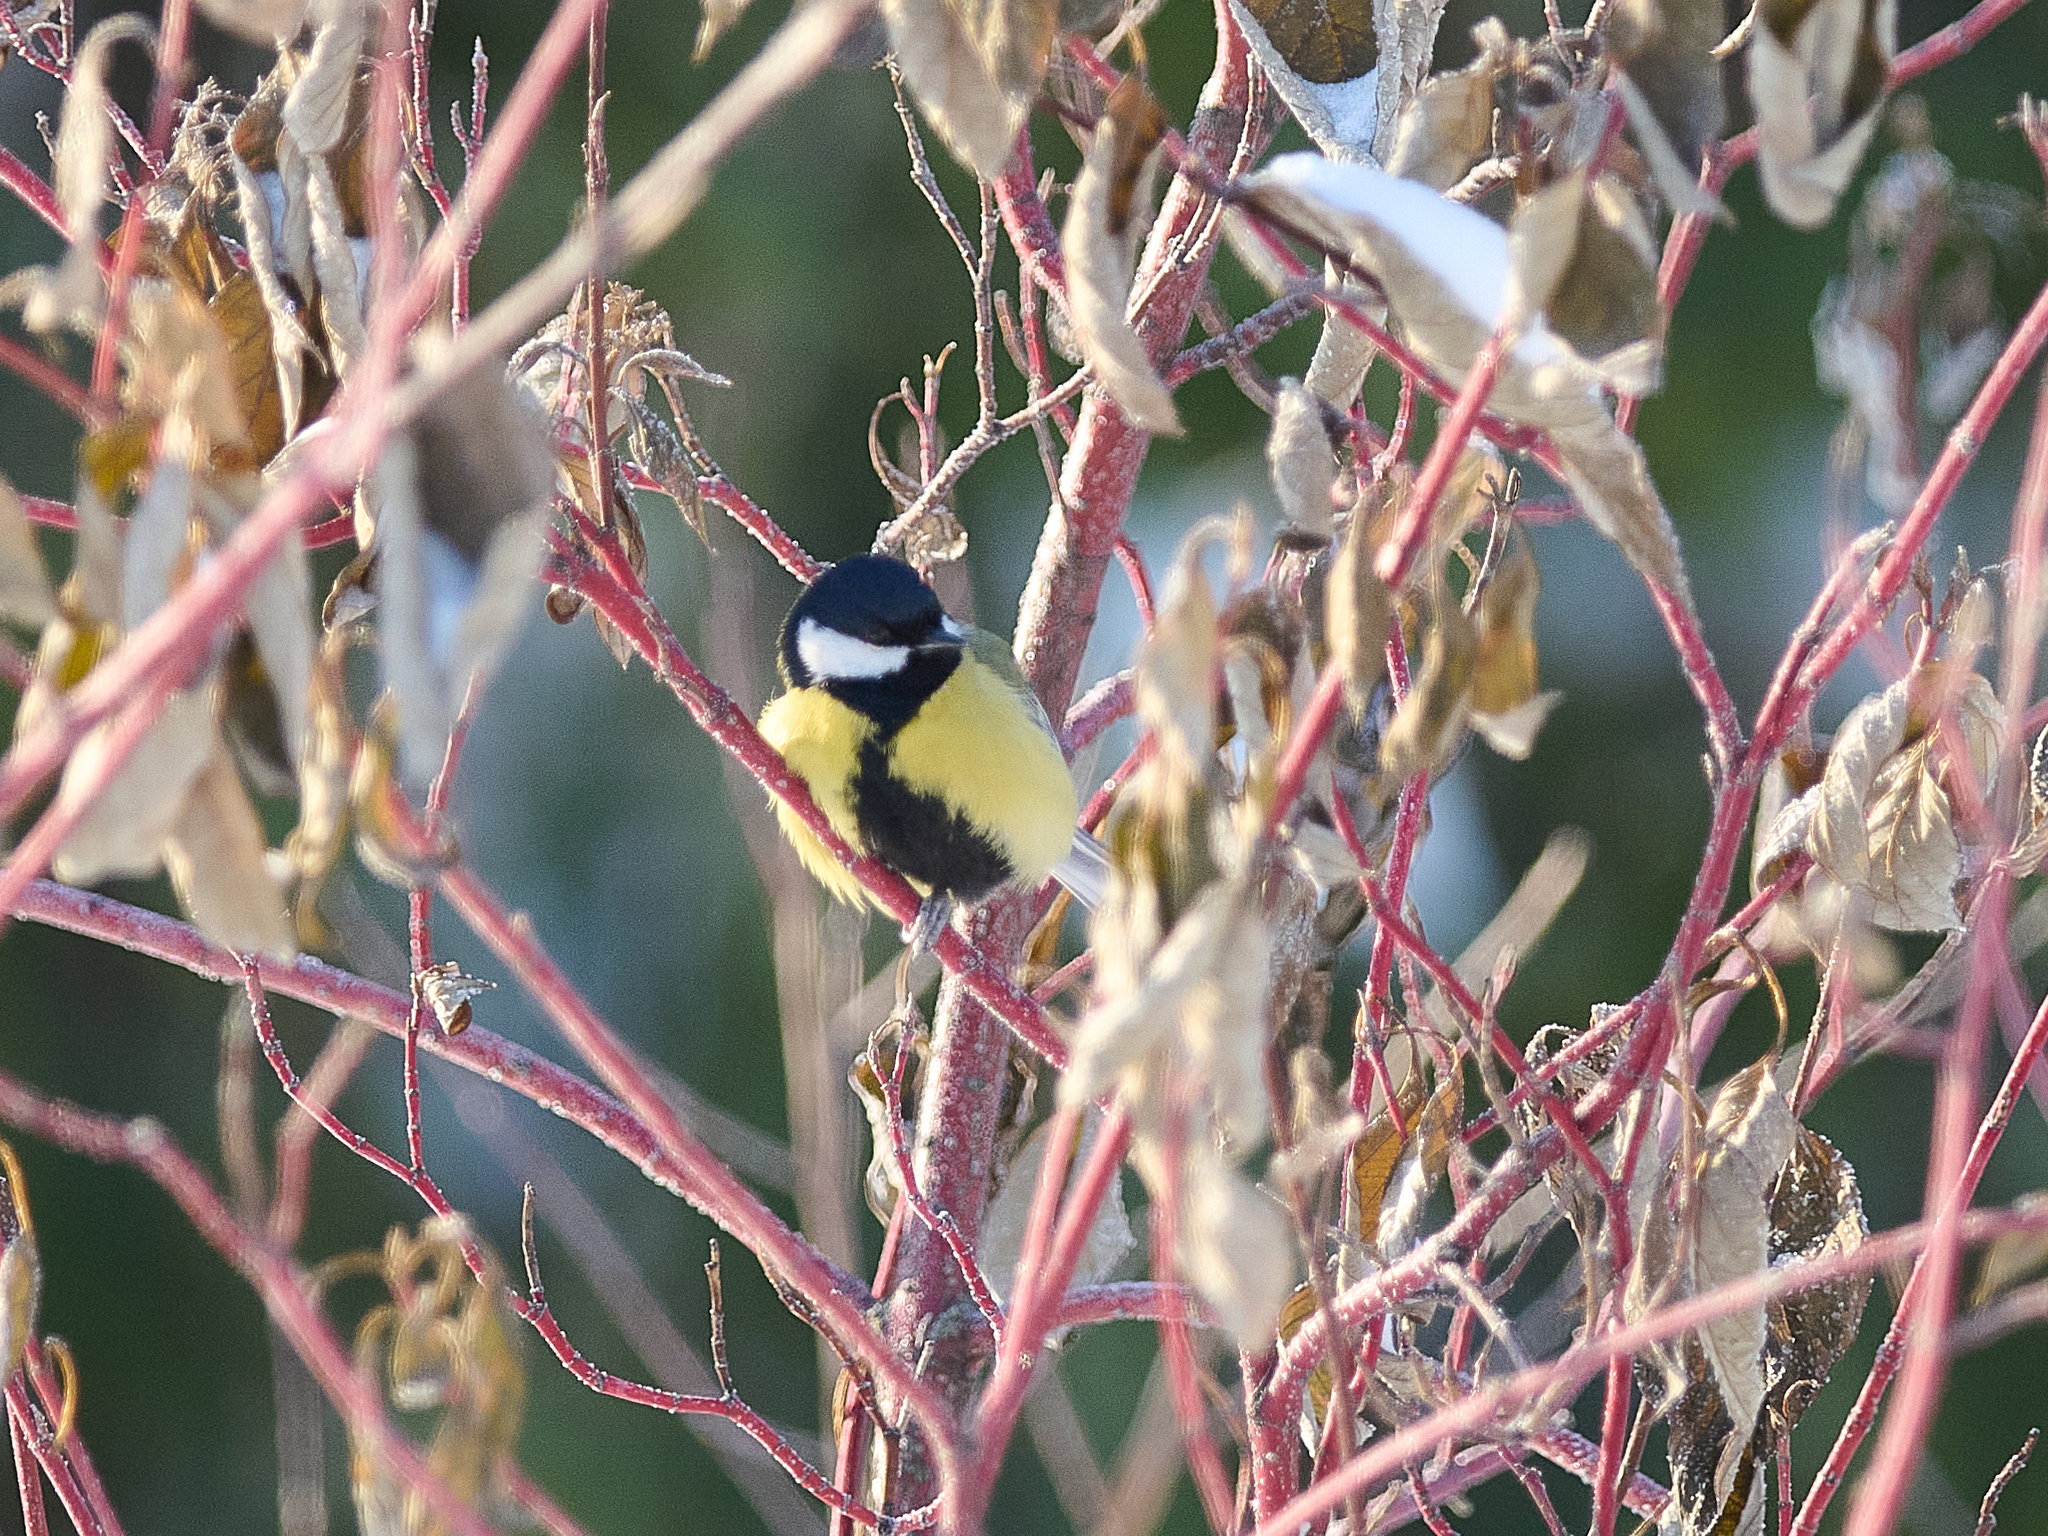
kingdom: Animalia
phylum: Chordata
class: Aves
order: Passeriformes
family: Paridae
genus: Parus
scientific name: Parus major
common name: Great tit
